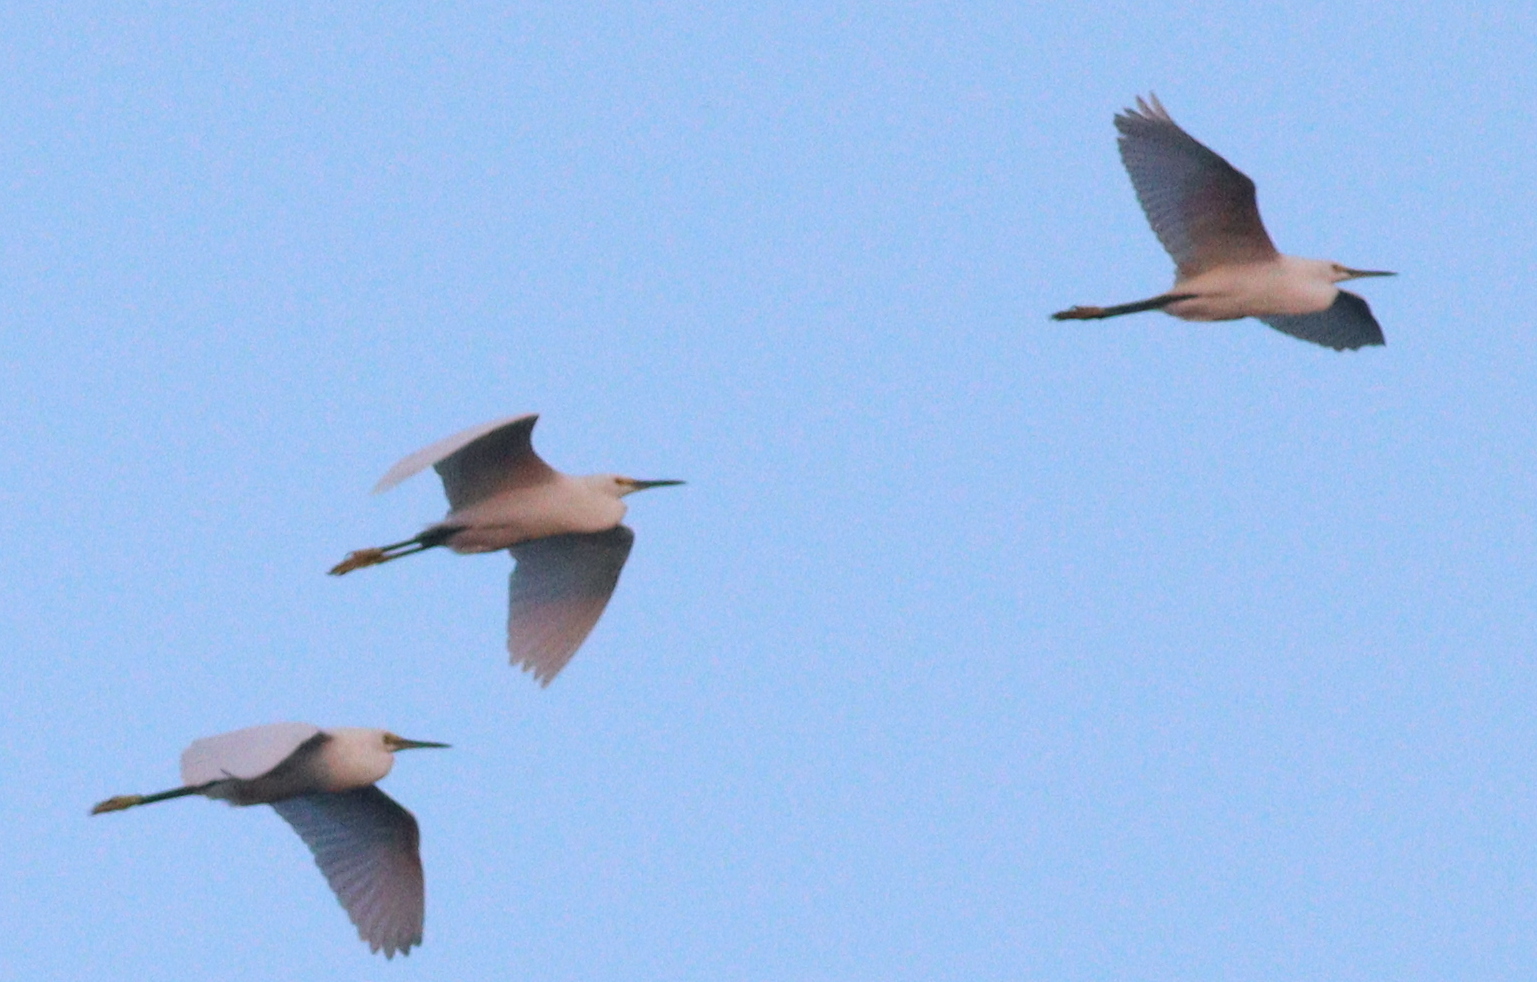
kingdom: Animalia
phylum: Chordata
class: Aves
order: Pelecaniformes
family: Ardeidae
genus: Egretta
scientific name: Egretta thula
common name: Snowy egret
